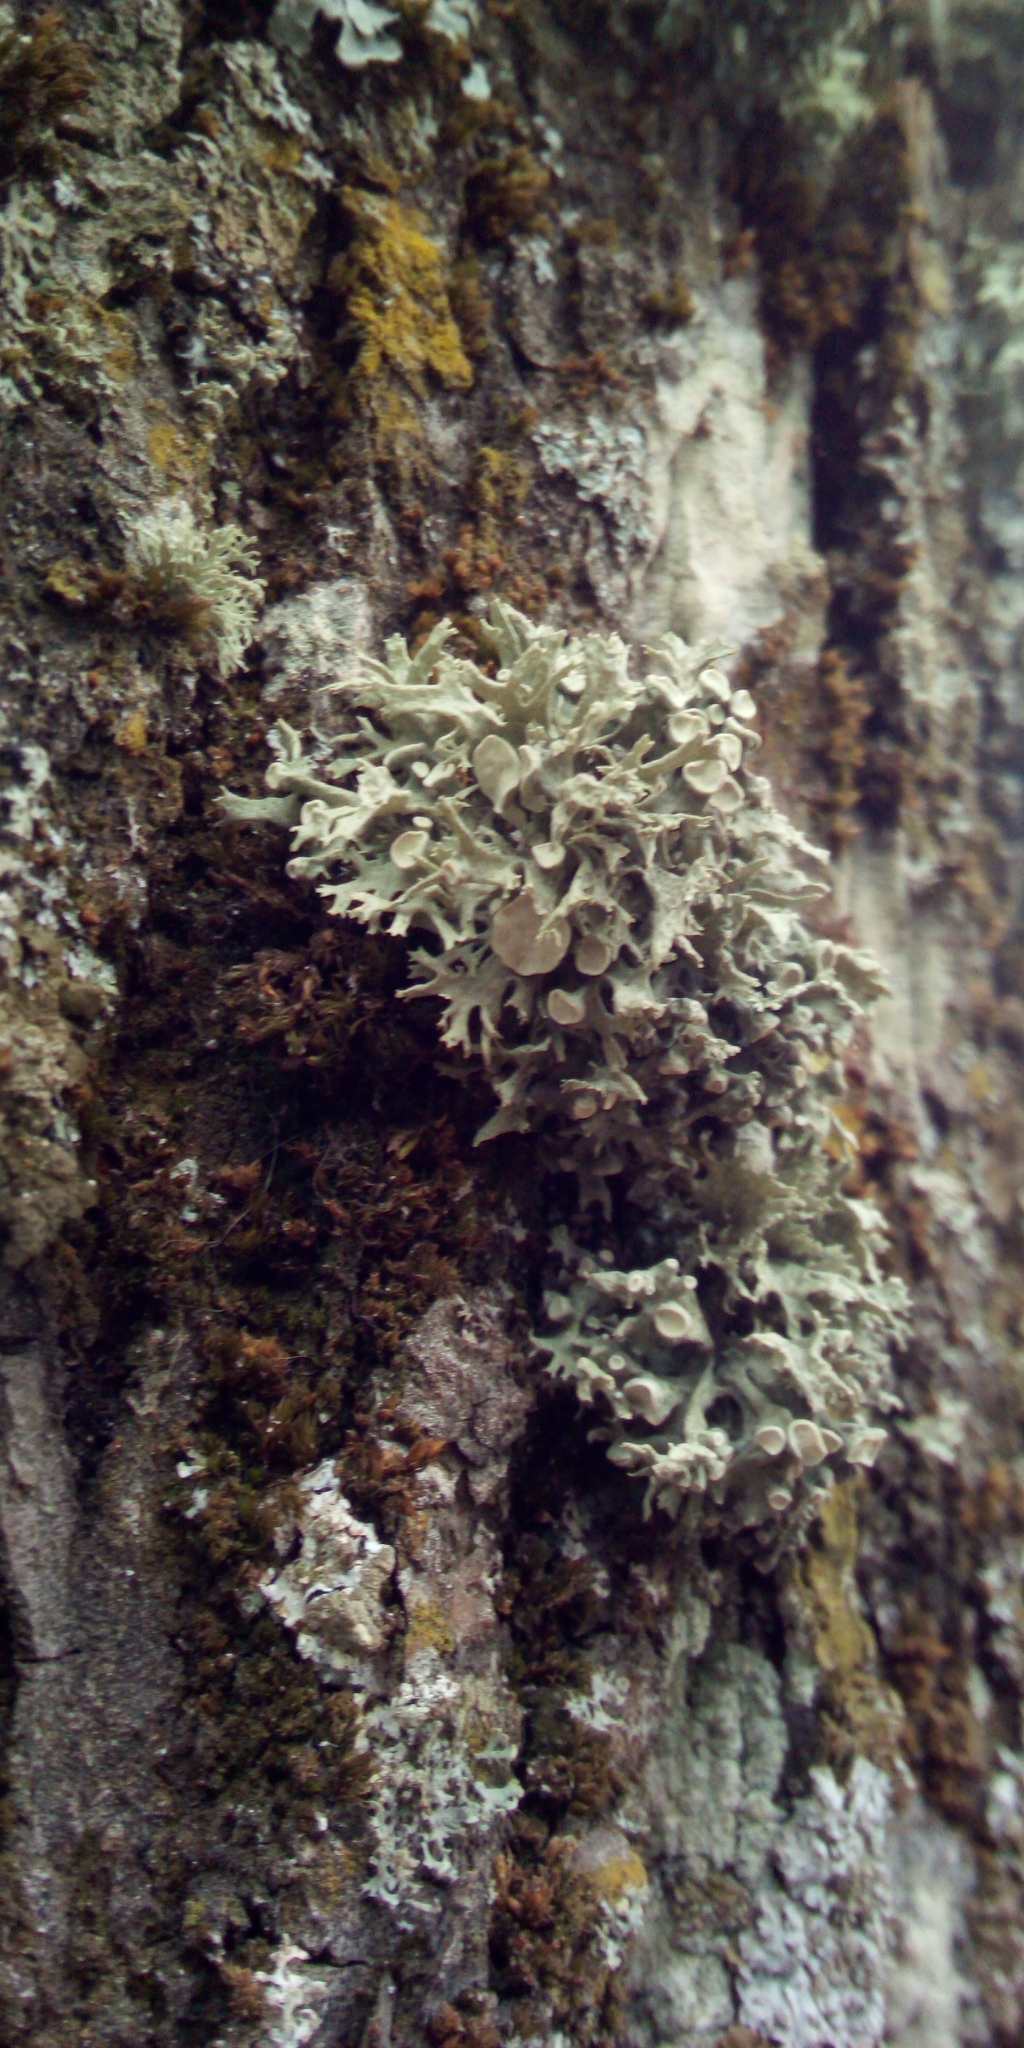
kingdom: Fungi
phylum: Ascomycota
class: Lecanoromycetes
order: Lecanorales
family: Ramalinaceae
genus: Ramalina
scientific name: Ramalina fastigiata
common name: Dotted ribbon lichen
